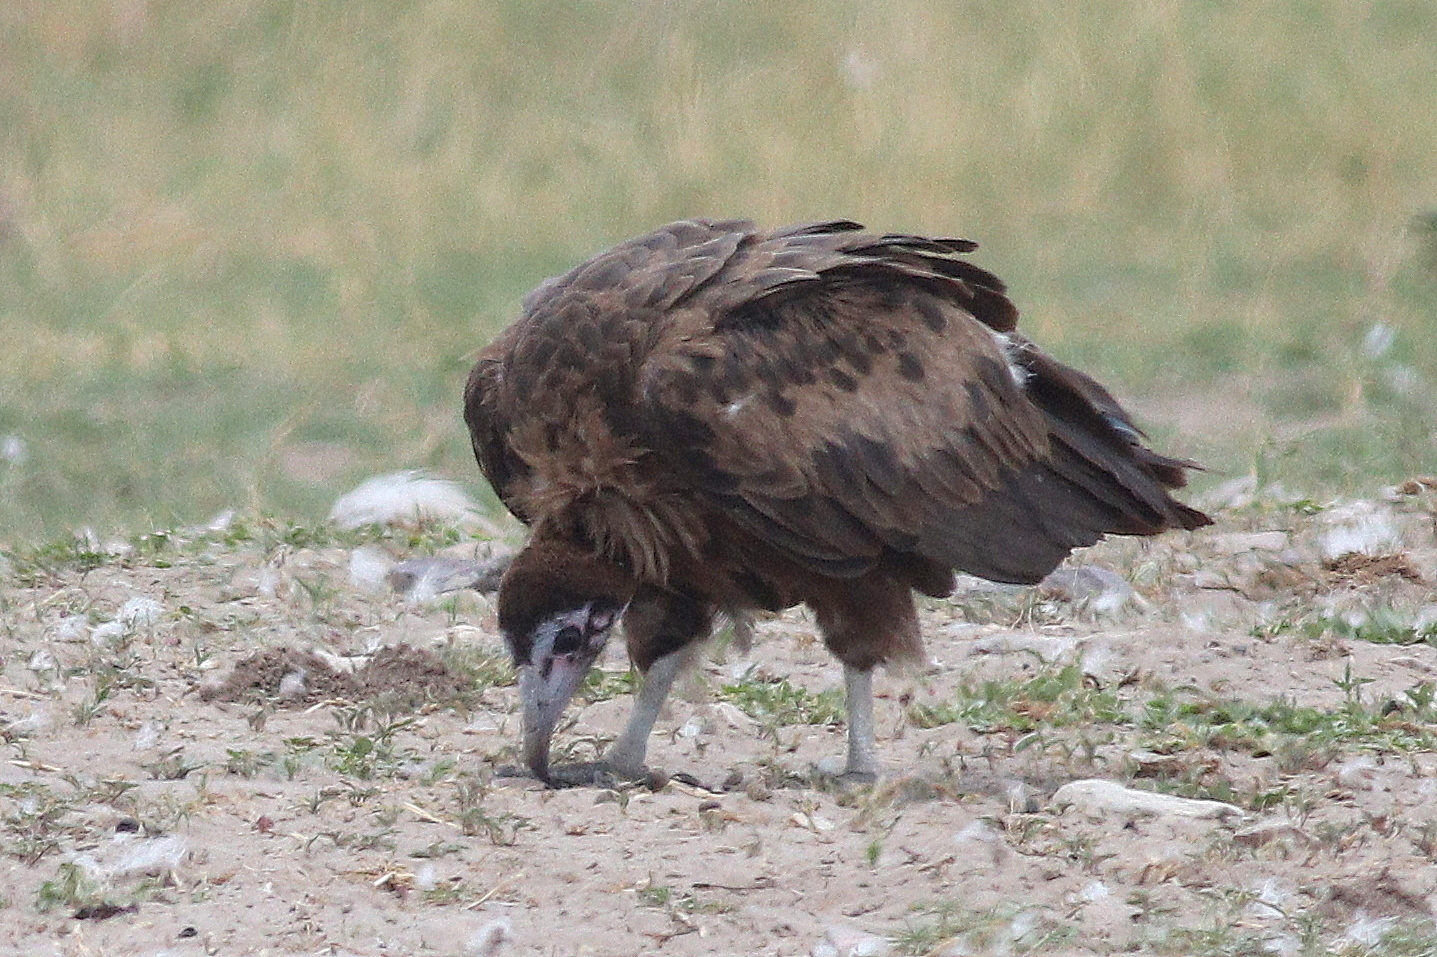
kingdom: Animalia
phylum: Chordata
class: Aves
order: Accipitriformes
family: Accipitridae
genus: Necrosyrtes
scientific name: Necrosyrtes monachus
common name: Hooded vulture
